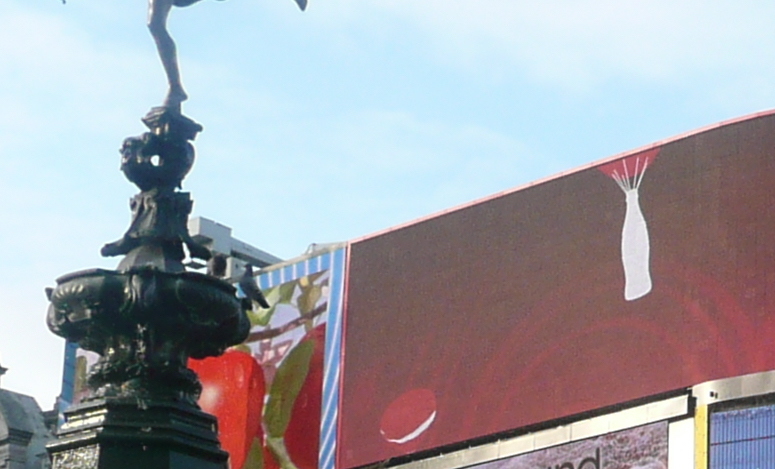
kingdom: Animalia
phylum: Chordata
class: Aves
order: Columbiformes
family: Columbidae
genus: Columba
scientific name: Columba livia
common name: Rock pigeon
